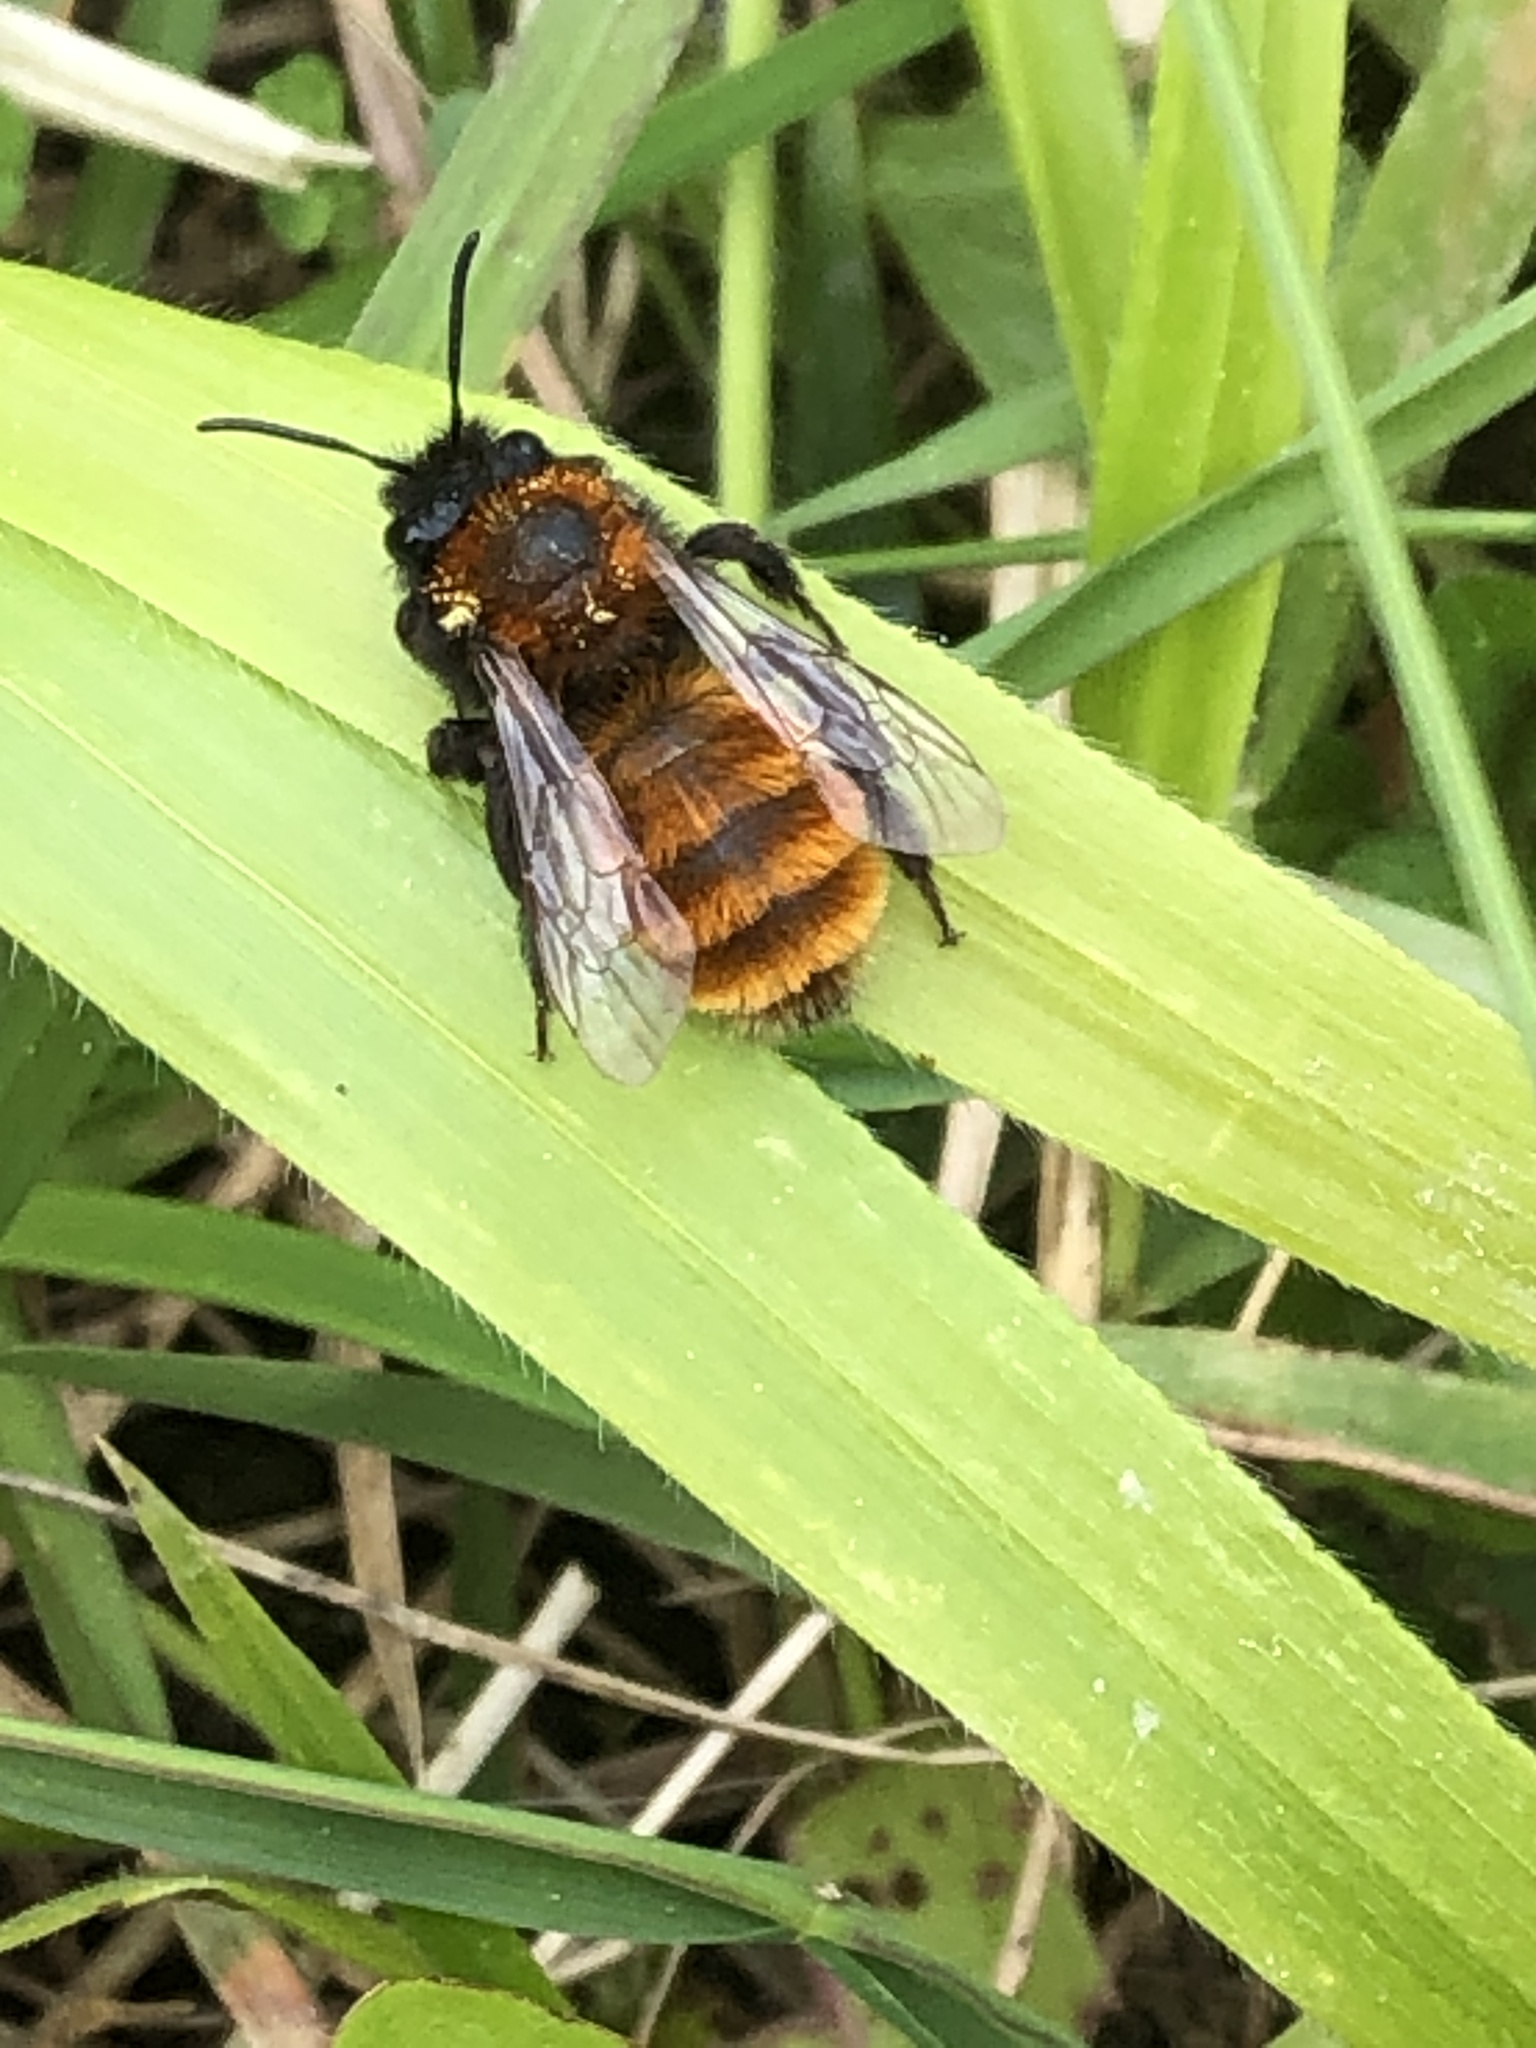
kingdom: Animalia
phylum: Arthropoda
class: Insecta
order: Hymenoptera
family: Andrenidae
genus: Andrena
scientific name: Andrena fulva
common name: Tawny mining bee
